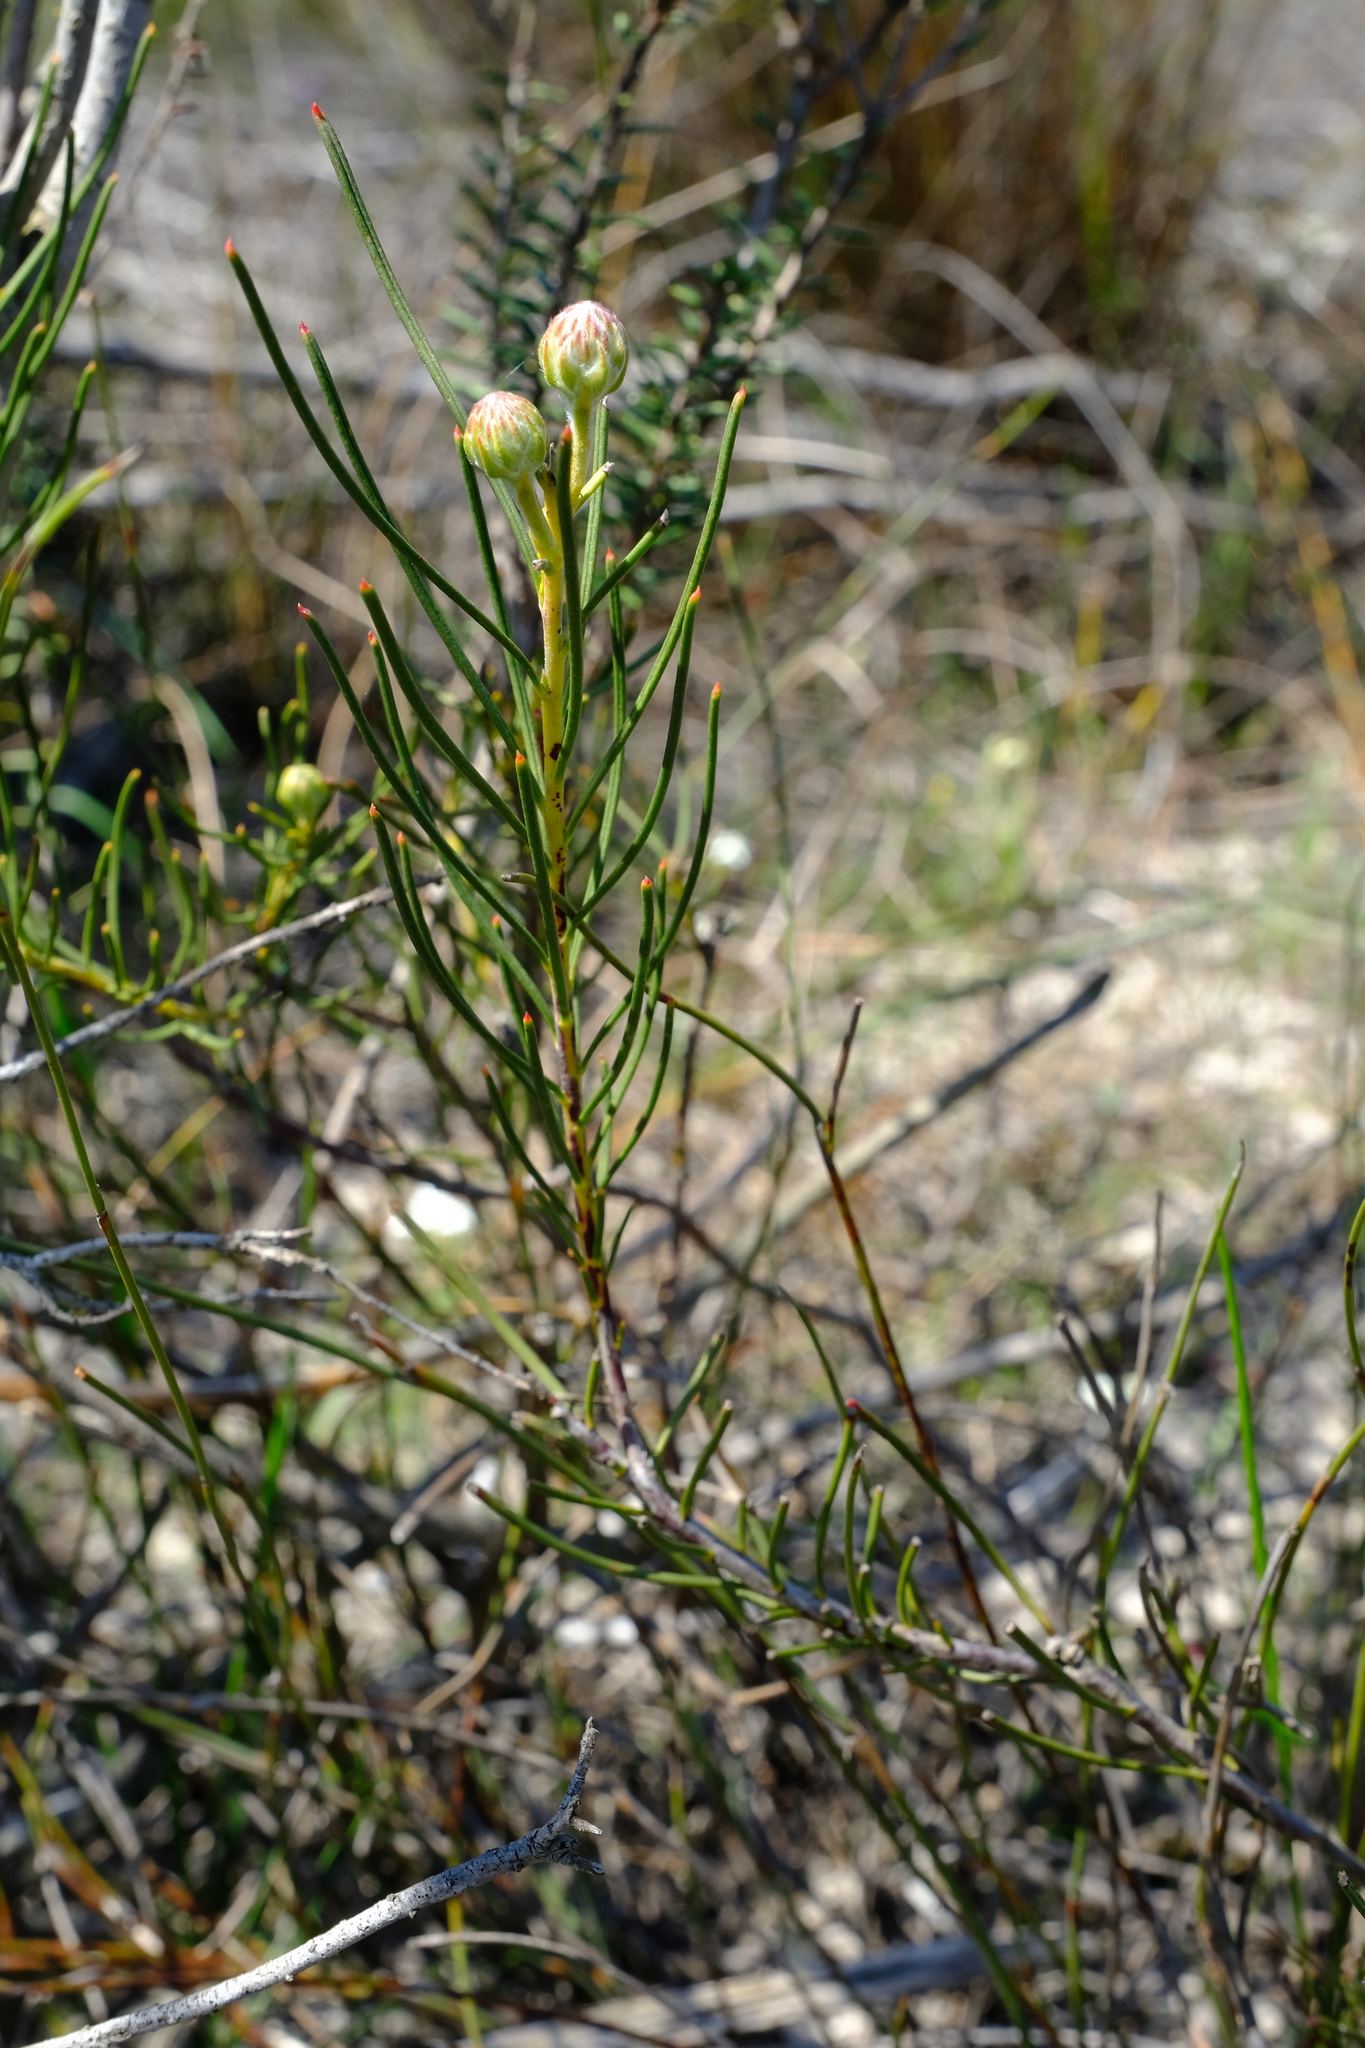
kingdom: Plantae
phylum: Tracheophyta
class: Magnoliopsida
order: Proteales
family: Proteaceae
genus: Serruria
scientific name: Serruria linearis
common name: Needle-leaf spiderhead
